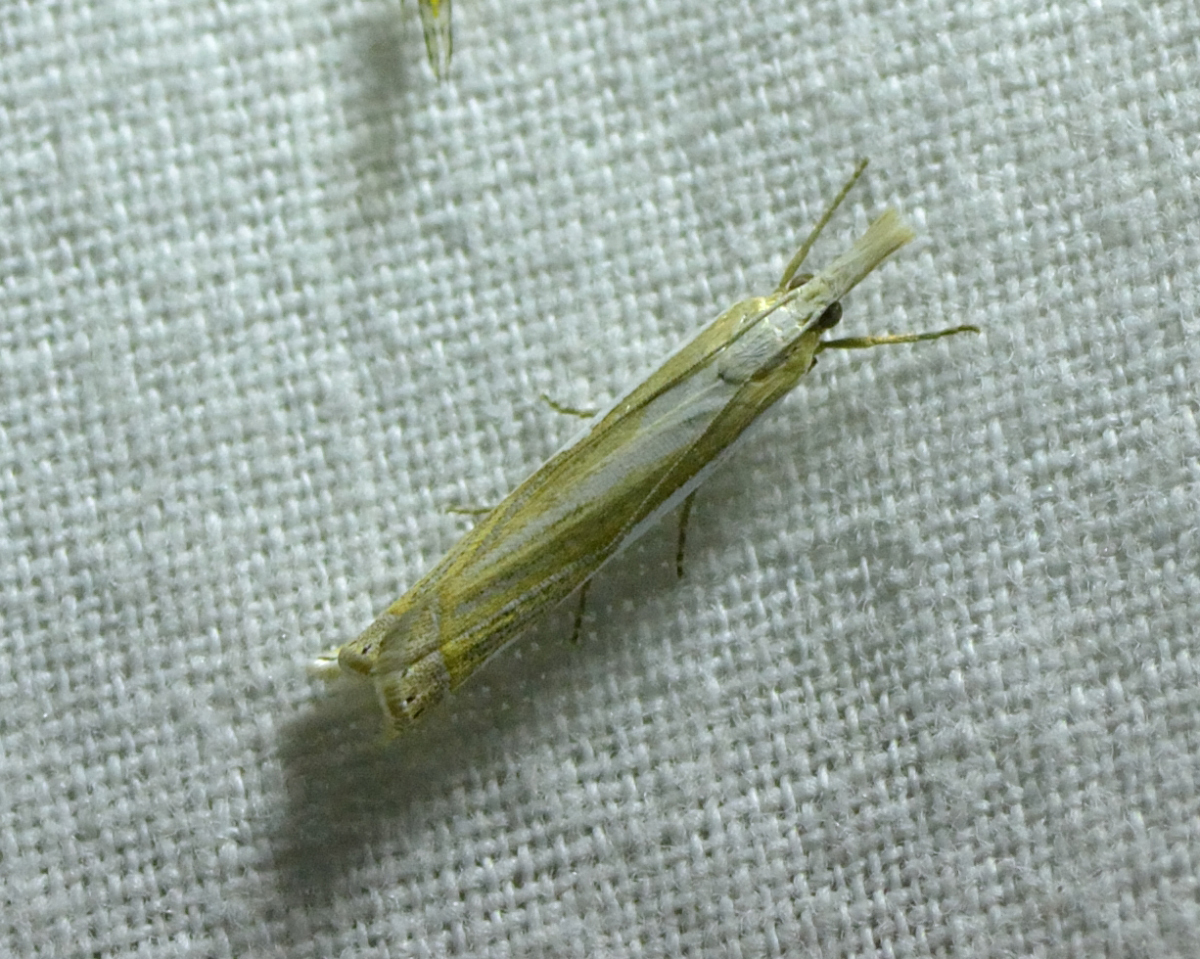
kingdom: Animalia
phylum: Arthropoda
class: Insecta
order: Lepidoptera
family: Crambidae
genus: Crambus
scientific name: Crambus pascuella
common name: Inlaid grass-veneer
